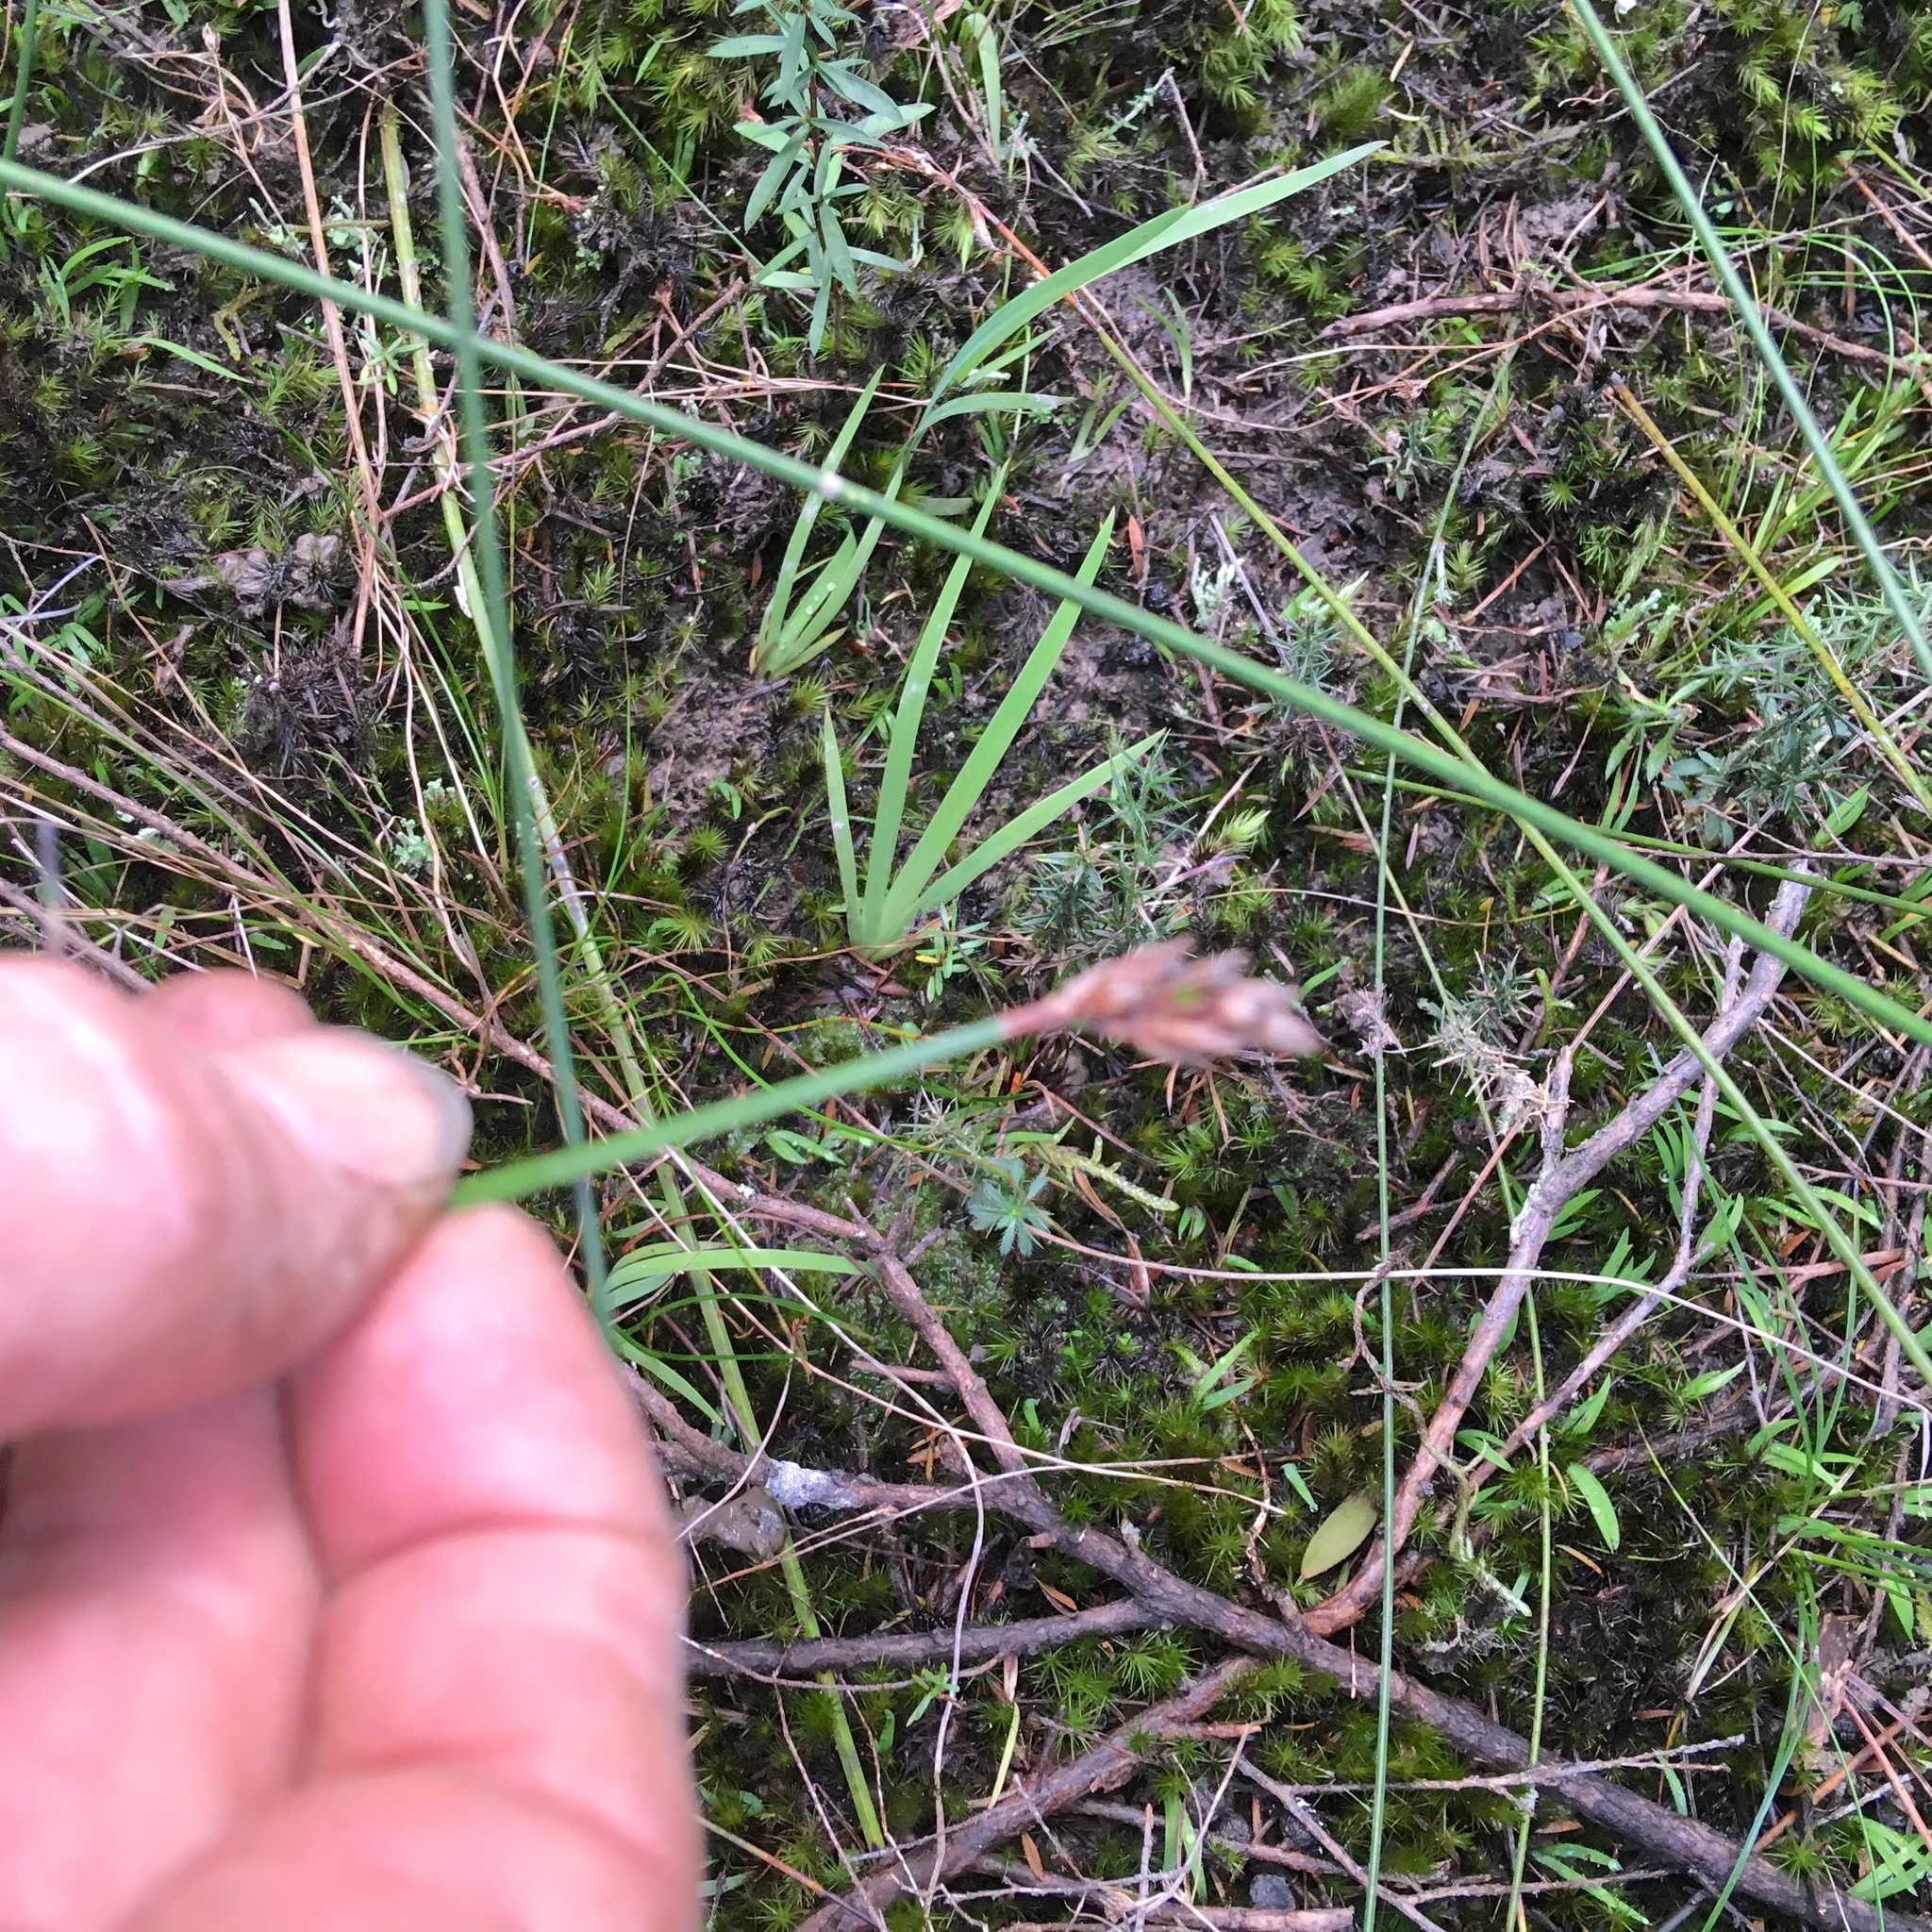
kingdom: Plantae
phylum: Tracheophyta
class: Magnoliopsida
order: Fabales
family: Fabaceae
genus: Ulex
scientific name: Ulex europaeus
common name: Common gorse
